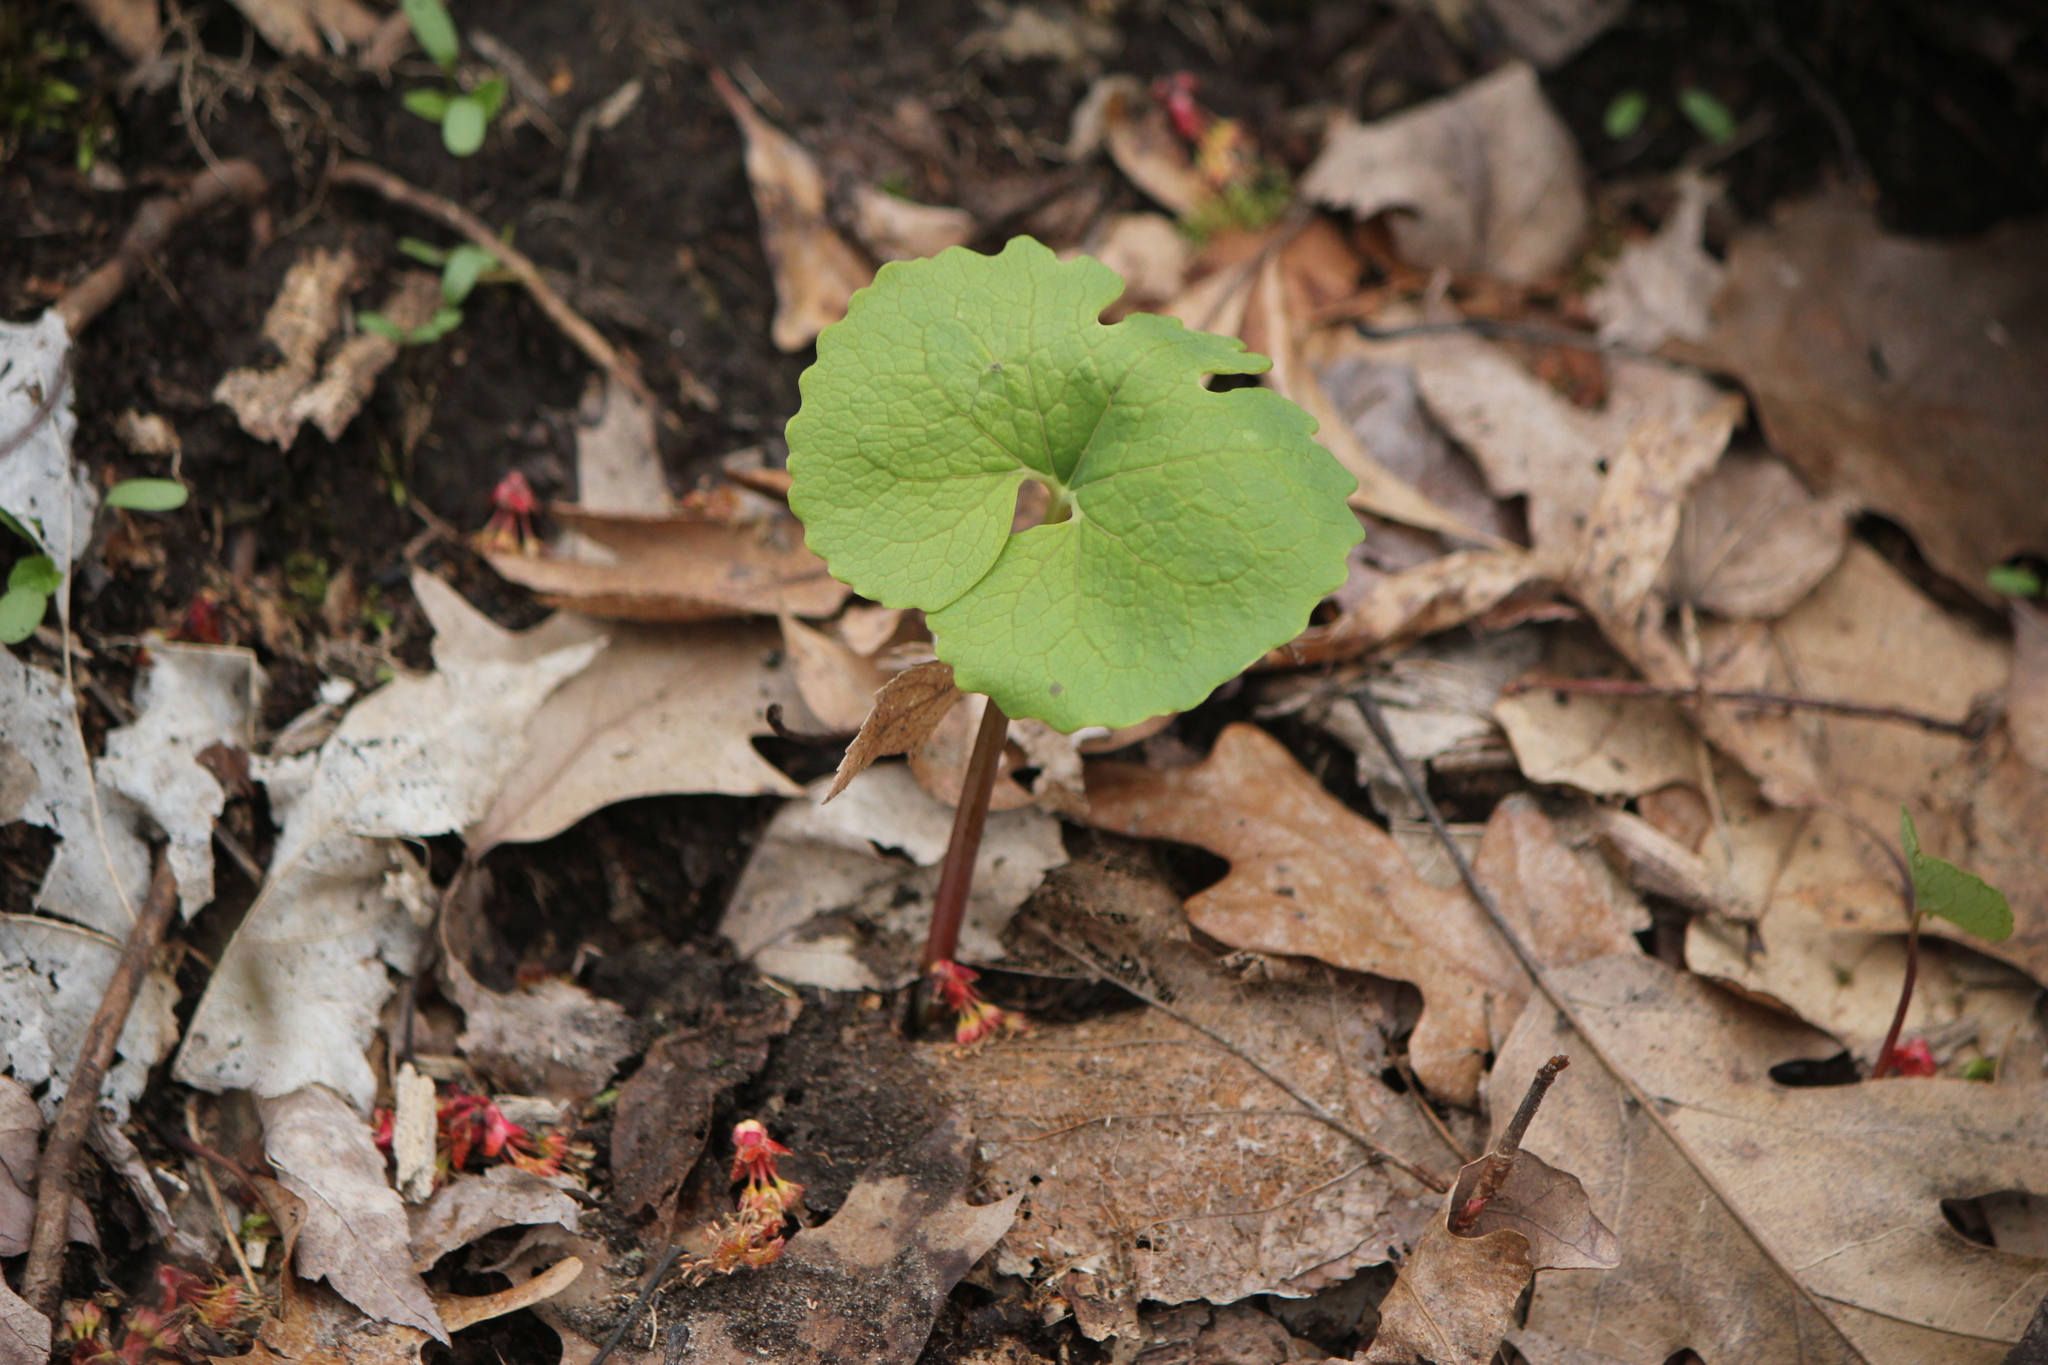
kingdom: Plantae
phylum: Tracheophyta
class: Magnoliopsida
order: Ranunculales
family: Papaveraceae
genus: Sanguinaria
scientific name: Sanguinaria canadensis
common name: Bloodroot
